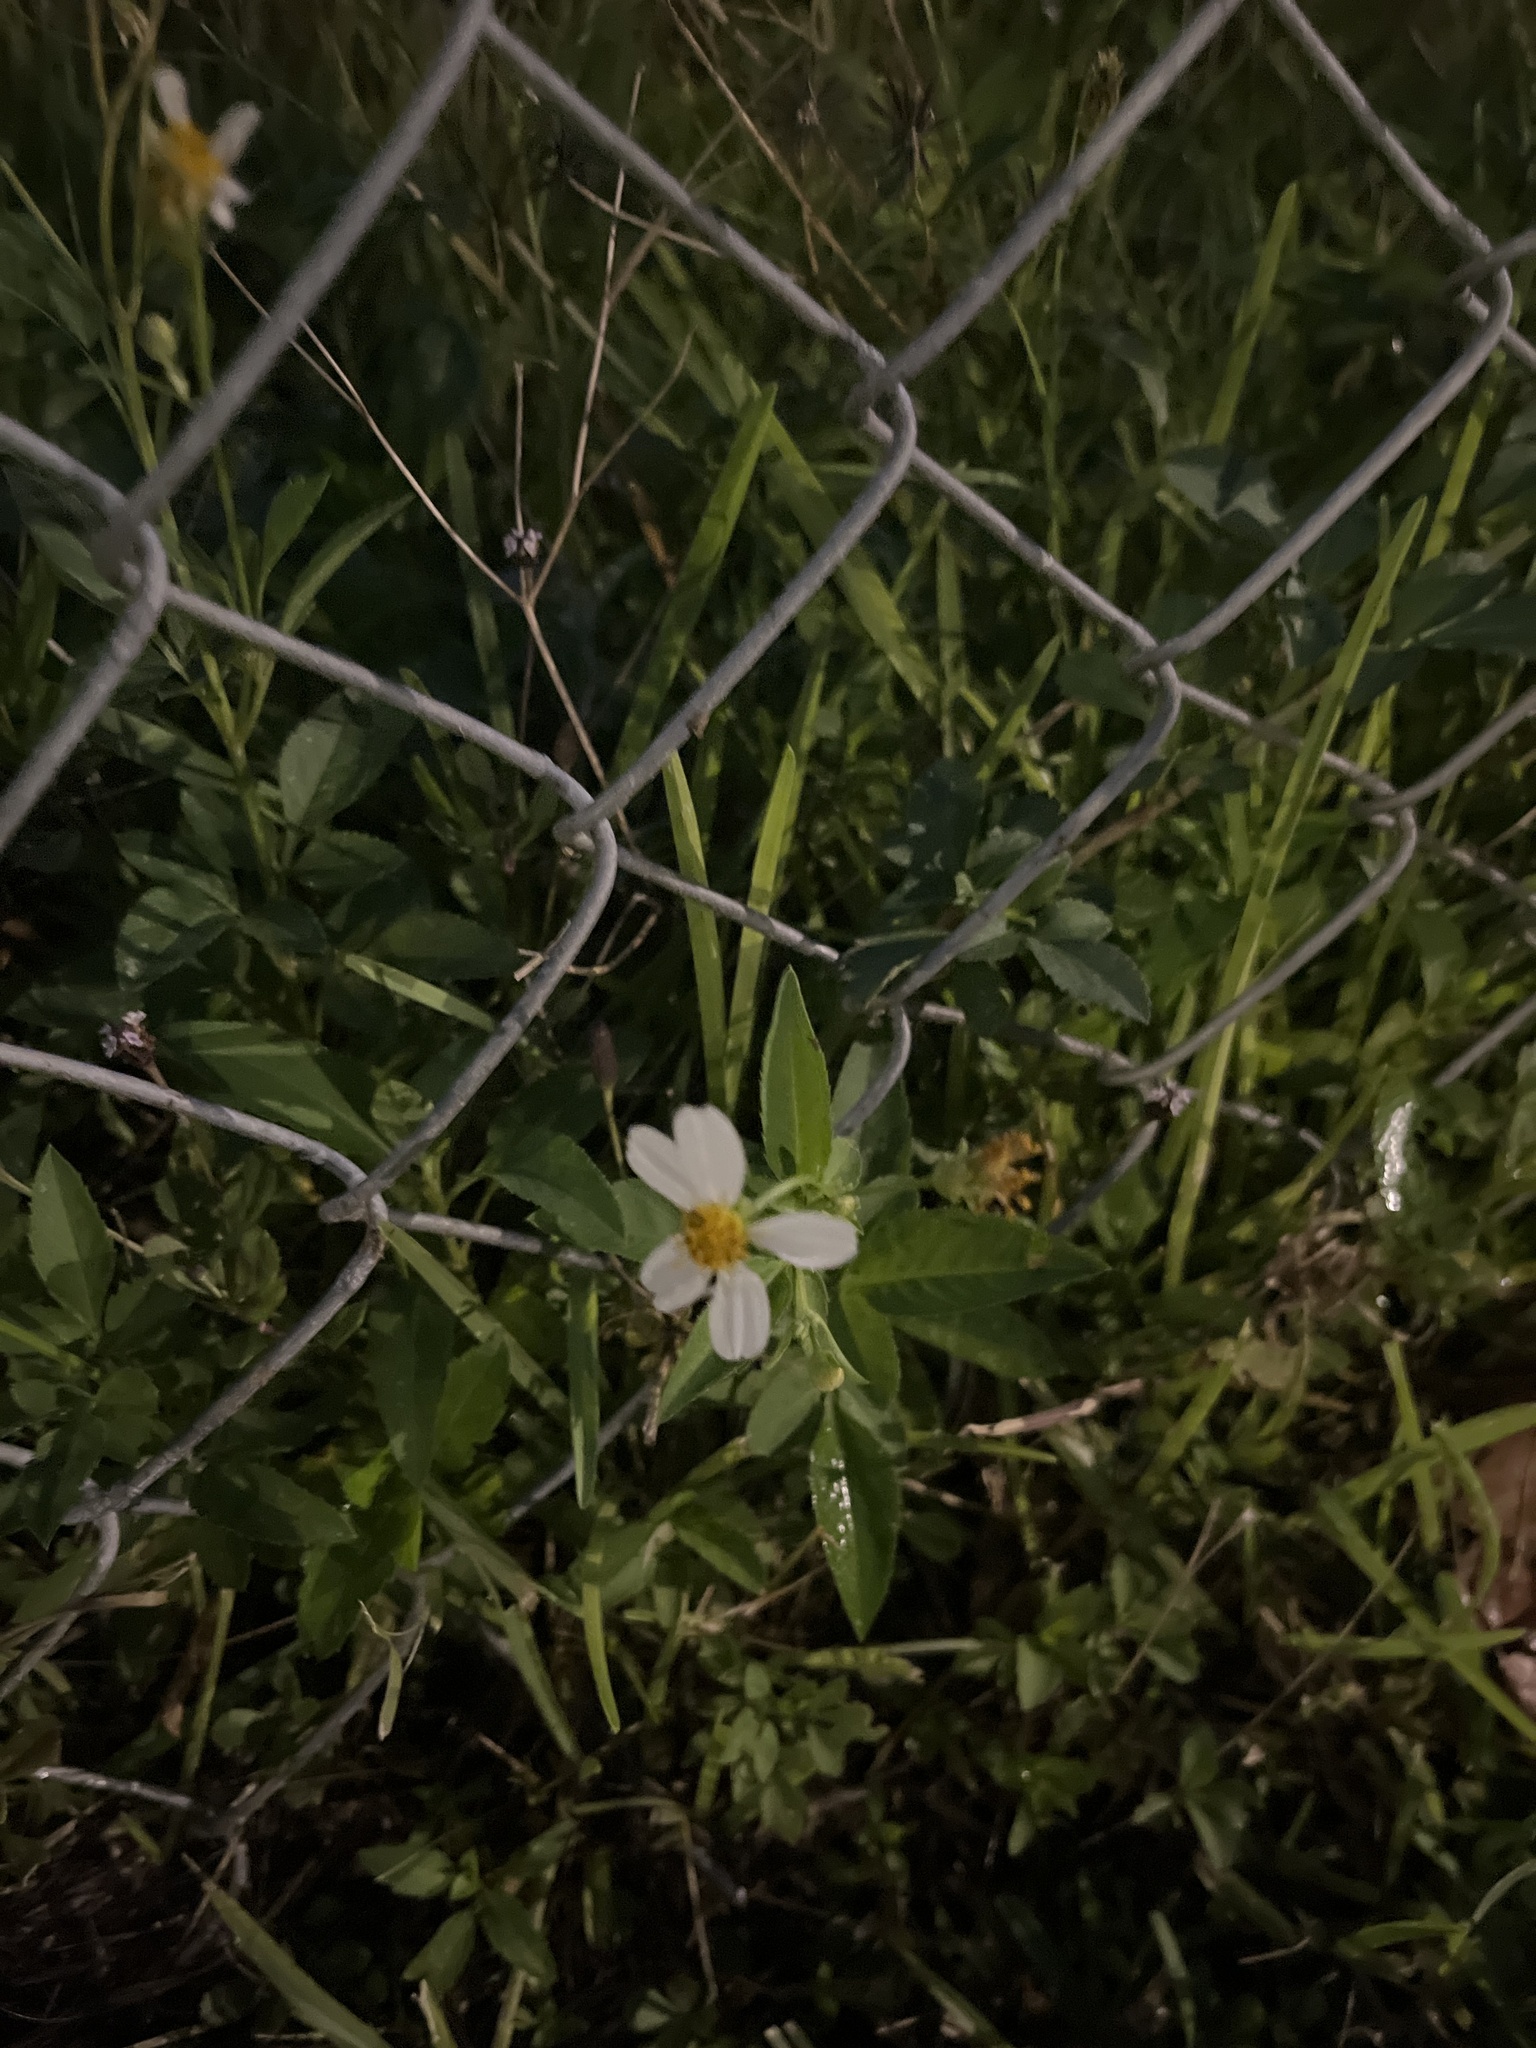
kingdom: Plantae
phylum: Tracheophyta
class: Magnoliopsida
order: Asterales
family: Asteraceae
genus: Bidens
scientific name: Bidens alba
